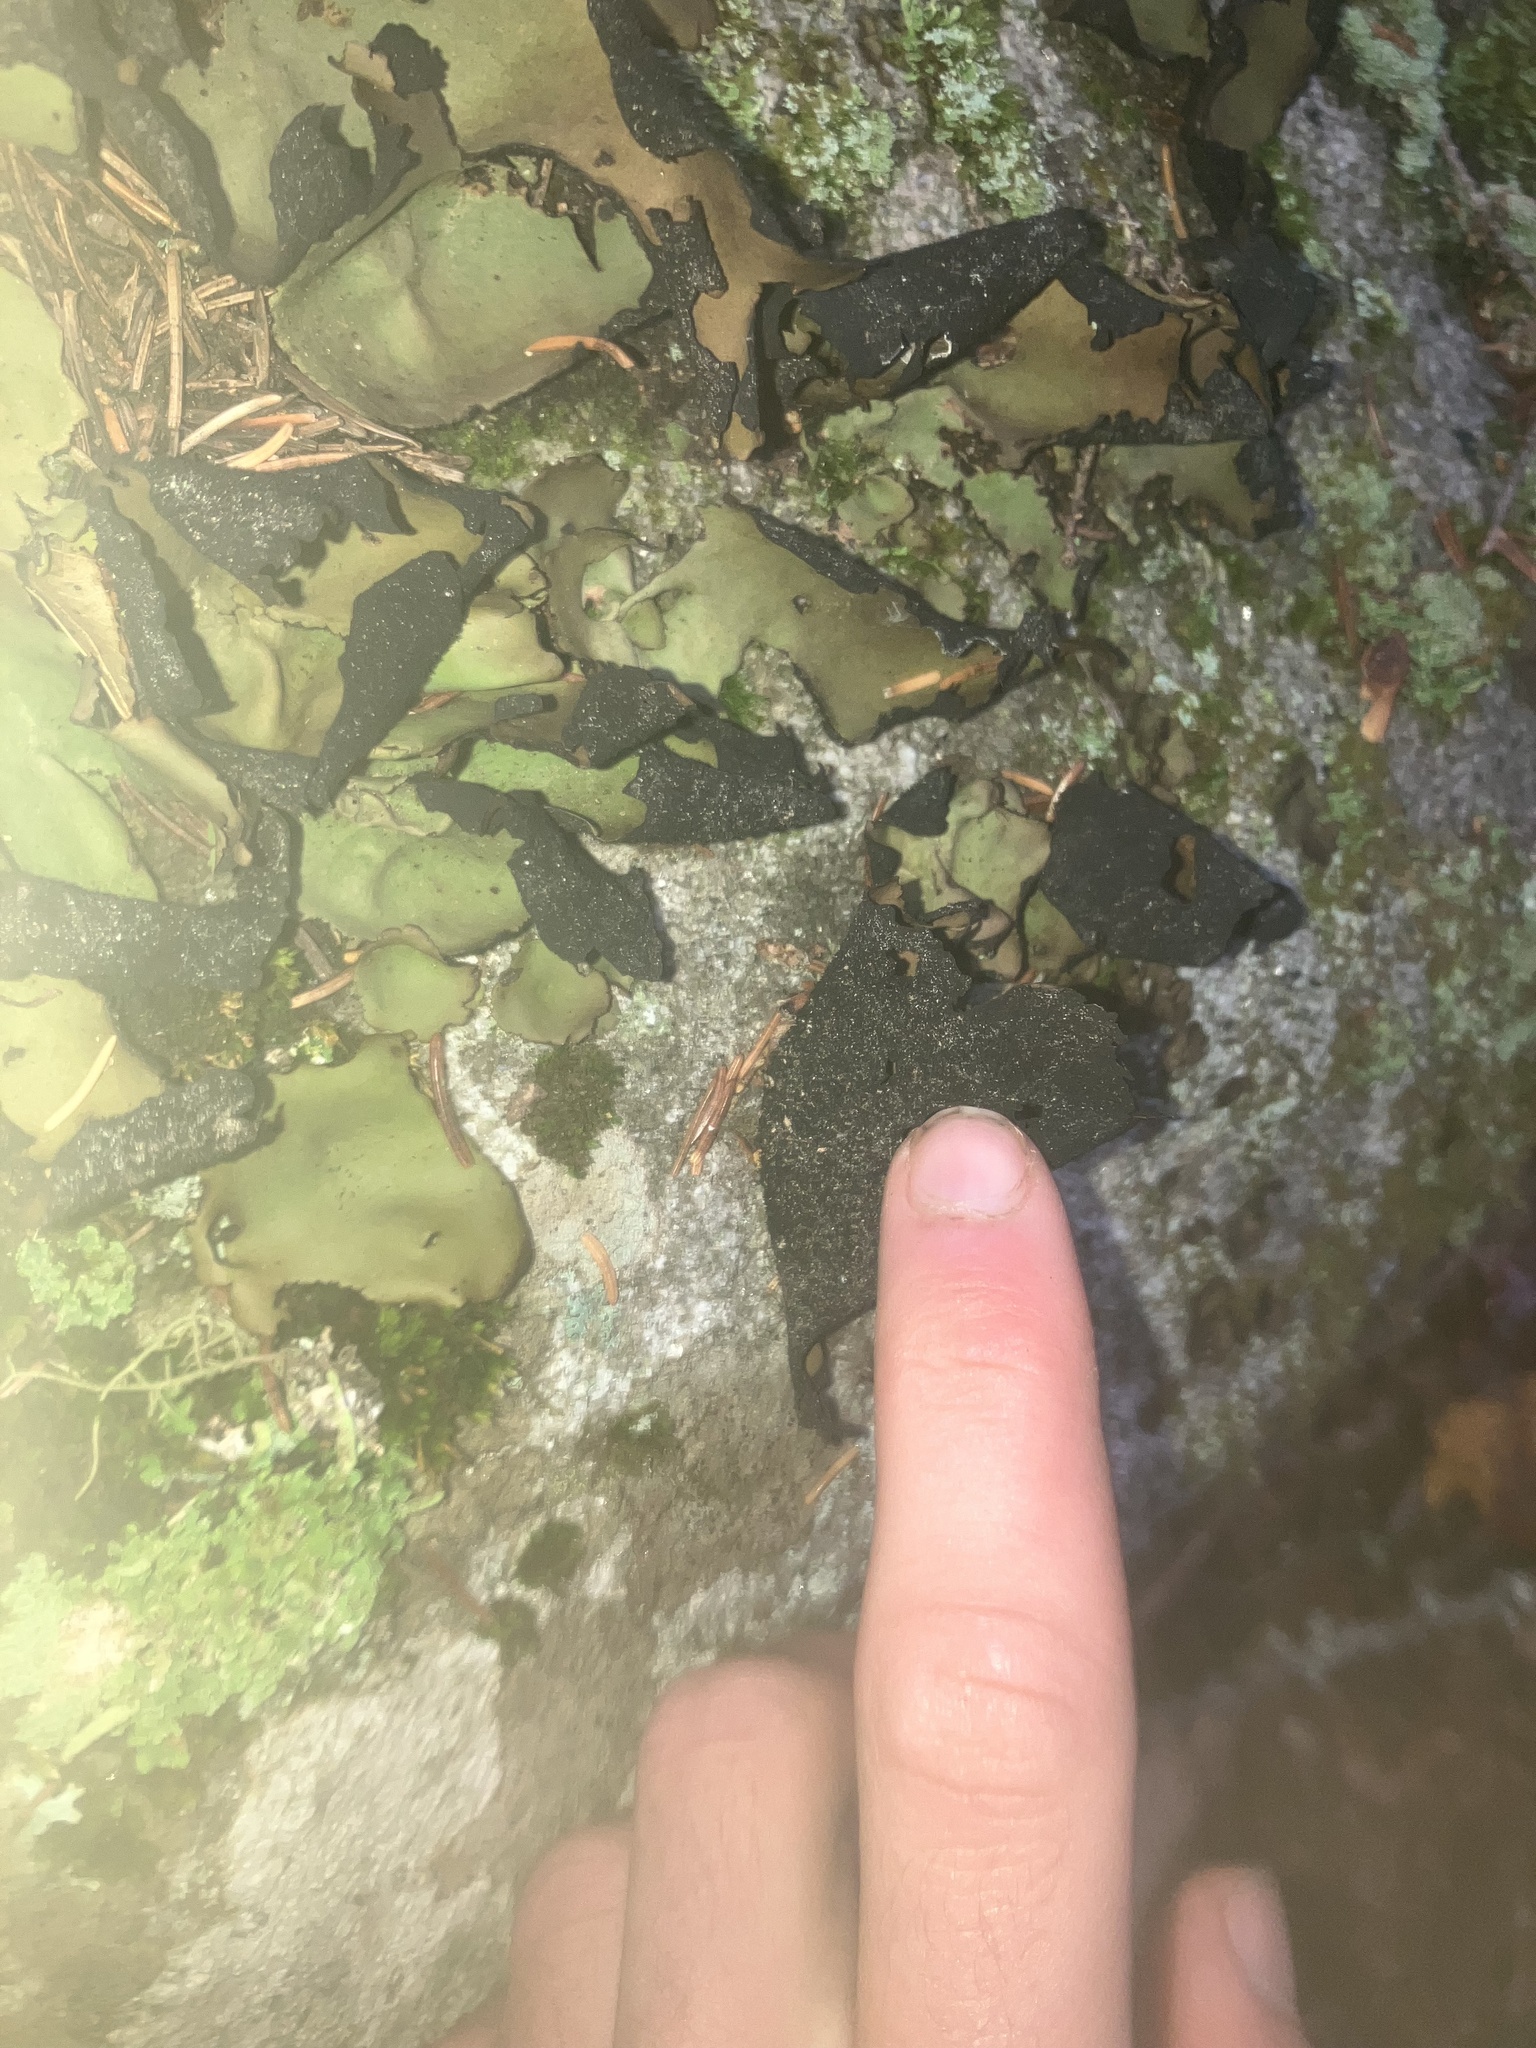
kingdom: Fungi
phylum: Ascomycota
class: Lecanoromycetes
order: Umbilicariales
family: Umbilicariaceae
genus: Umbilicaria
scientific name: Umbilicaria mammulata
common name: Smooth rock tripe
